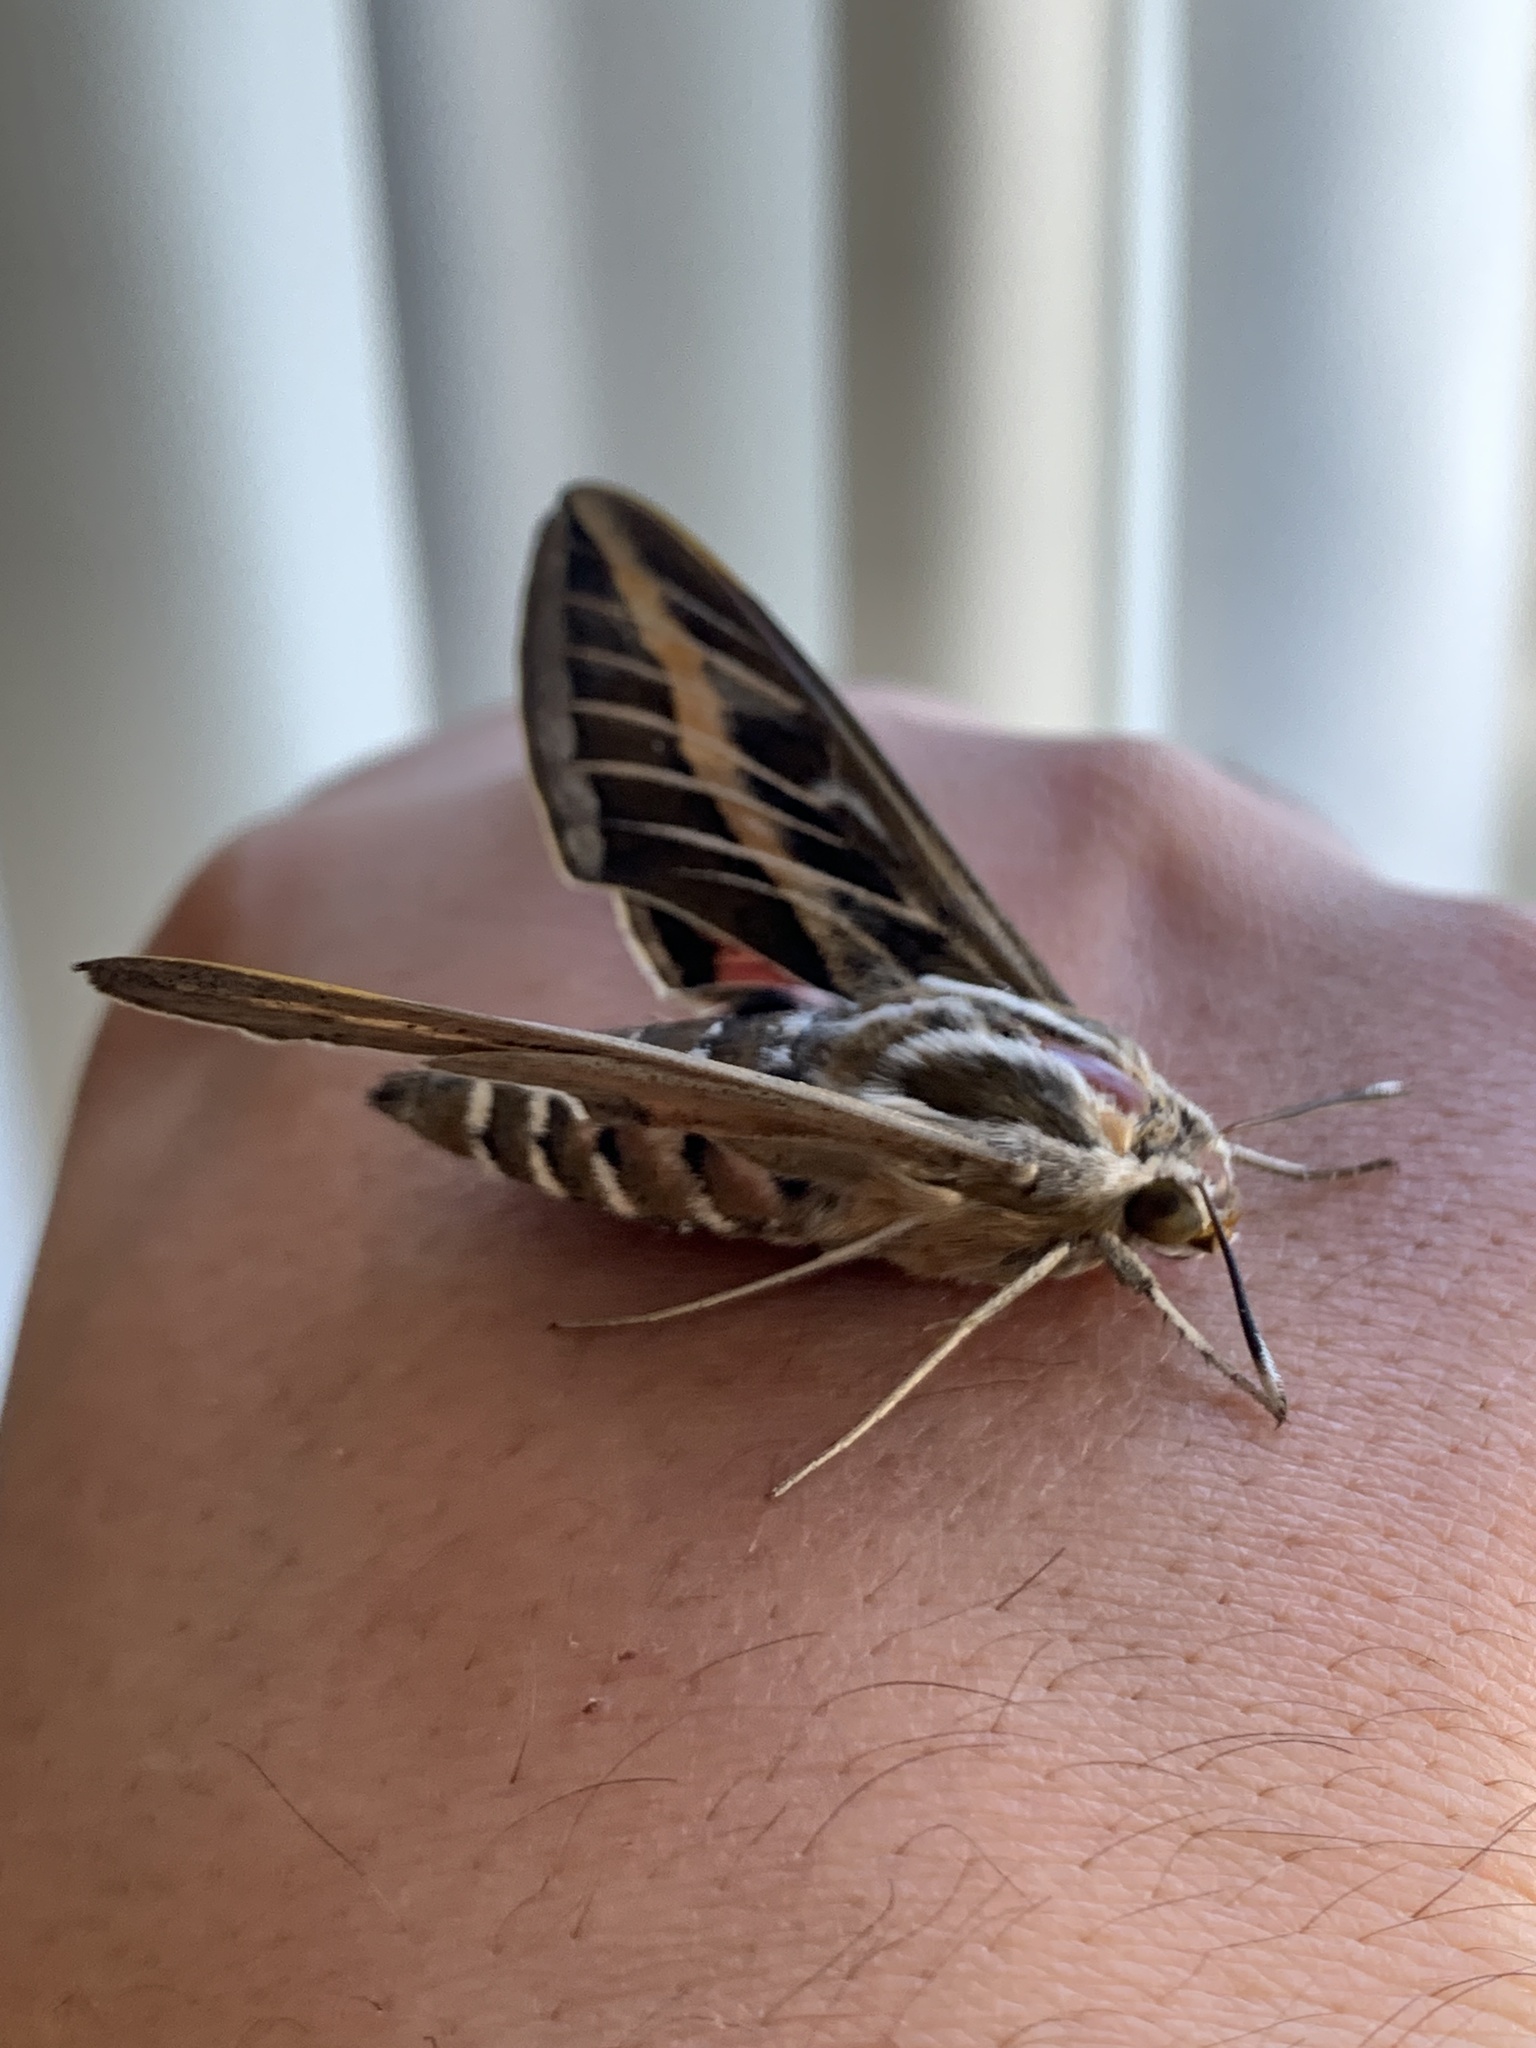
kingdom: Animalia
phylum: Arthropoda
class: Insecta
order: Lepidoptera
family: Sphingidae
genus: Hyles
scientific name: Hyles livornica
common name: Striped hawk-moth
